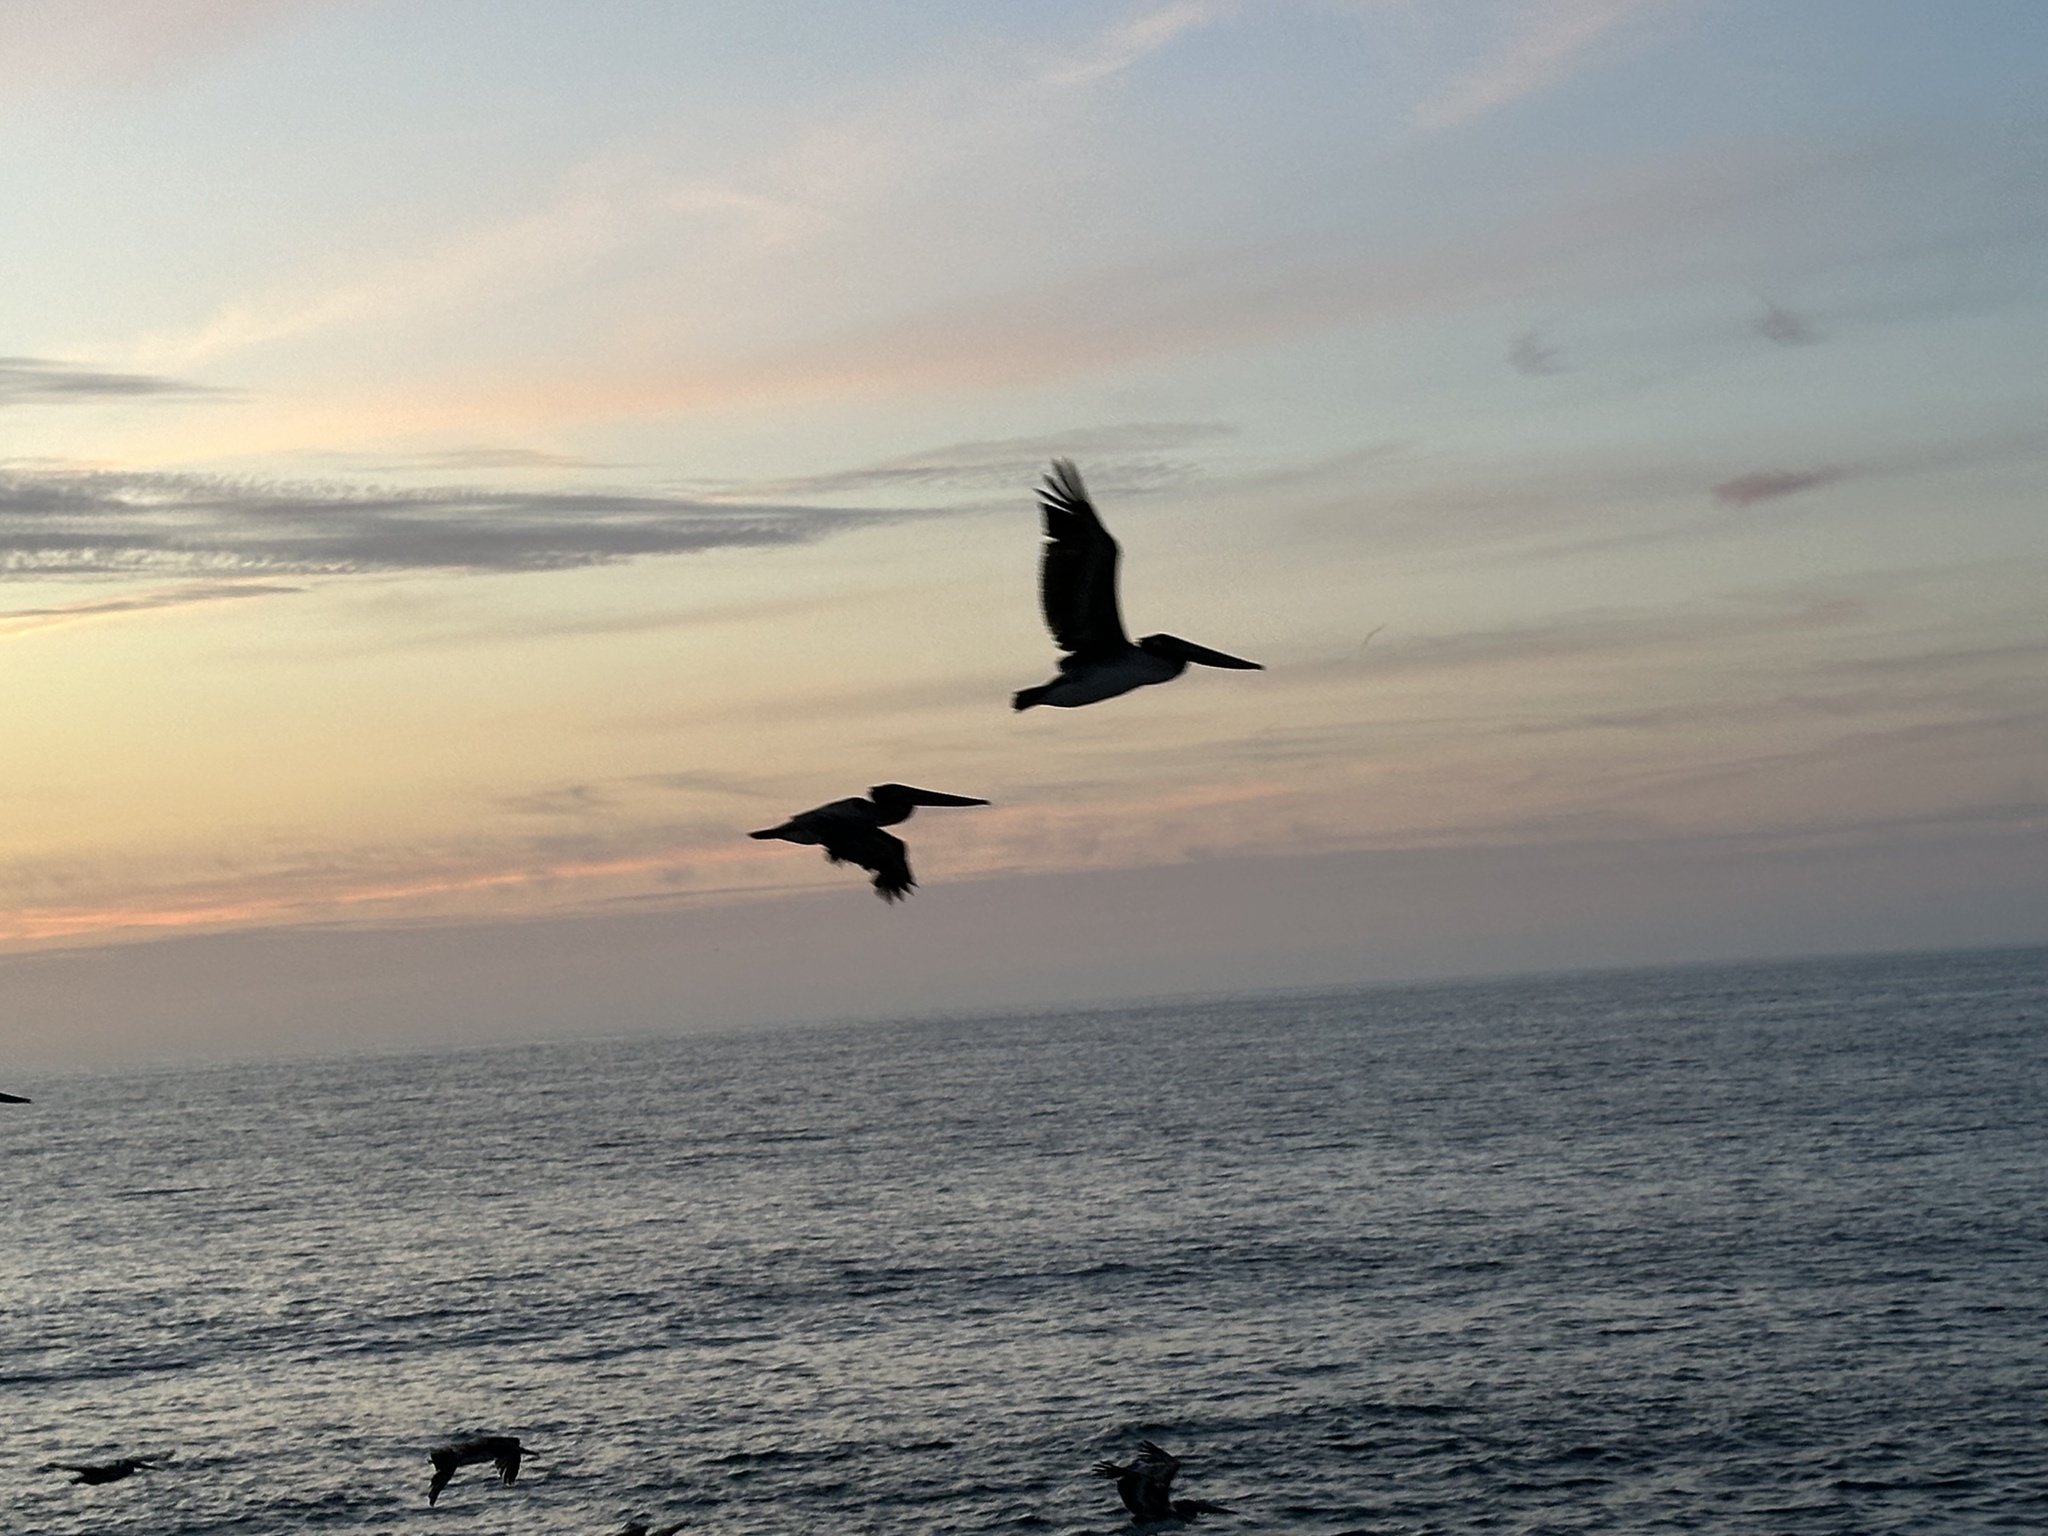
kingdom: Animalia
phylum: Chordata
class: Aves
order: Pelecaniformes
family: Pelecanidae
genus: Pelecanus
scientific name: Pelecanus occidentalis
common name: Brown pelican
